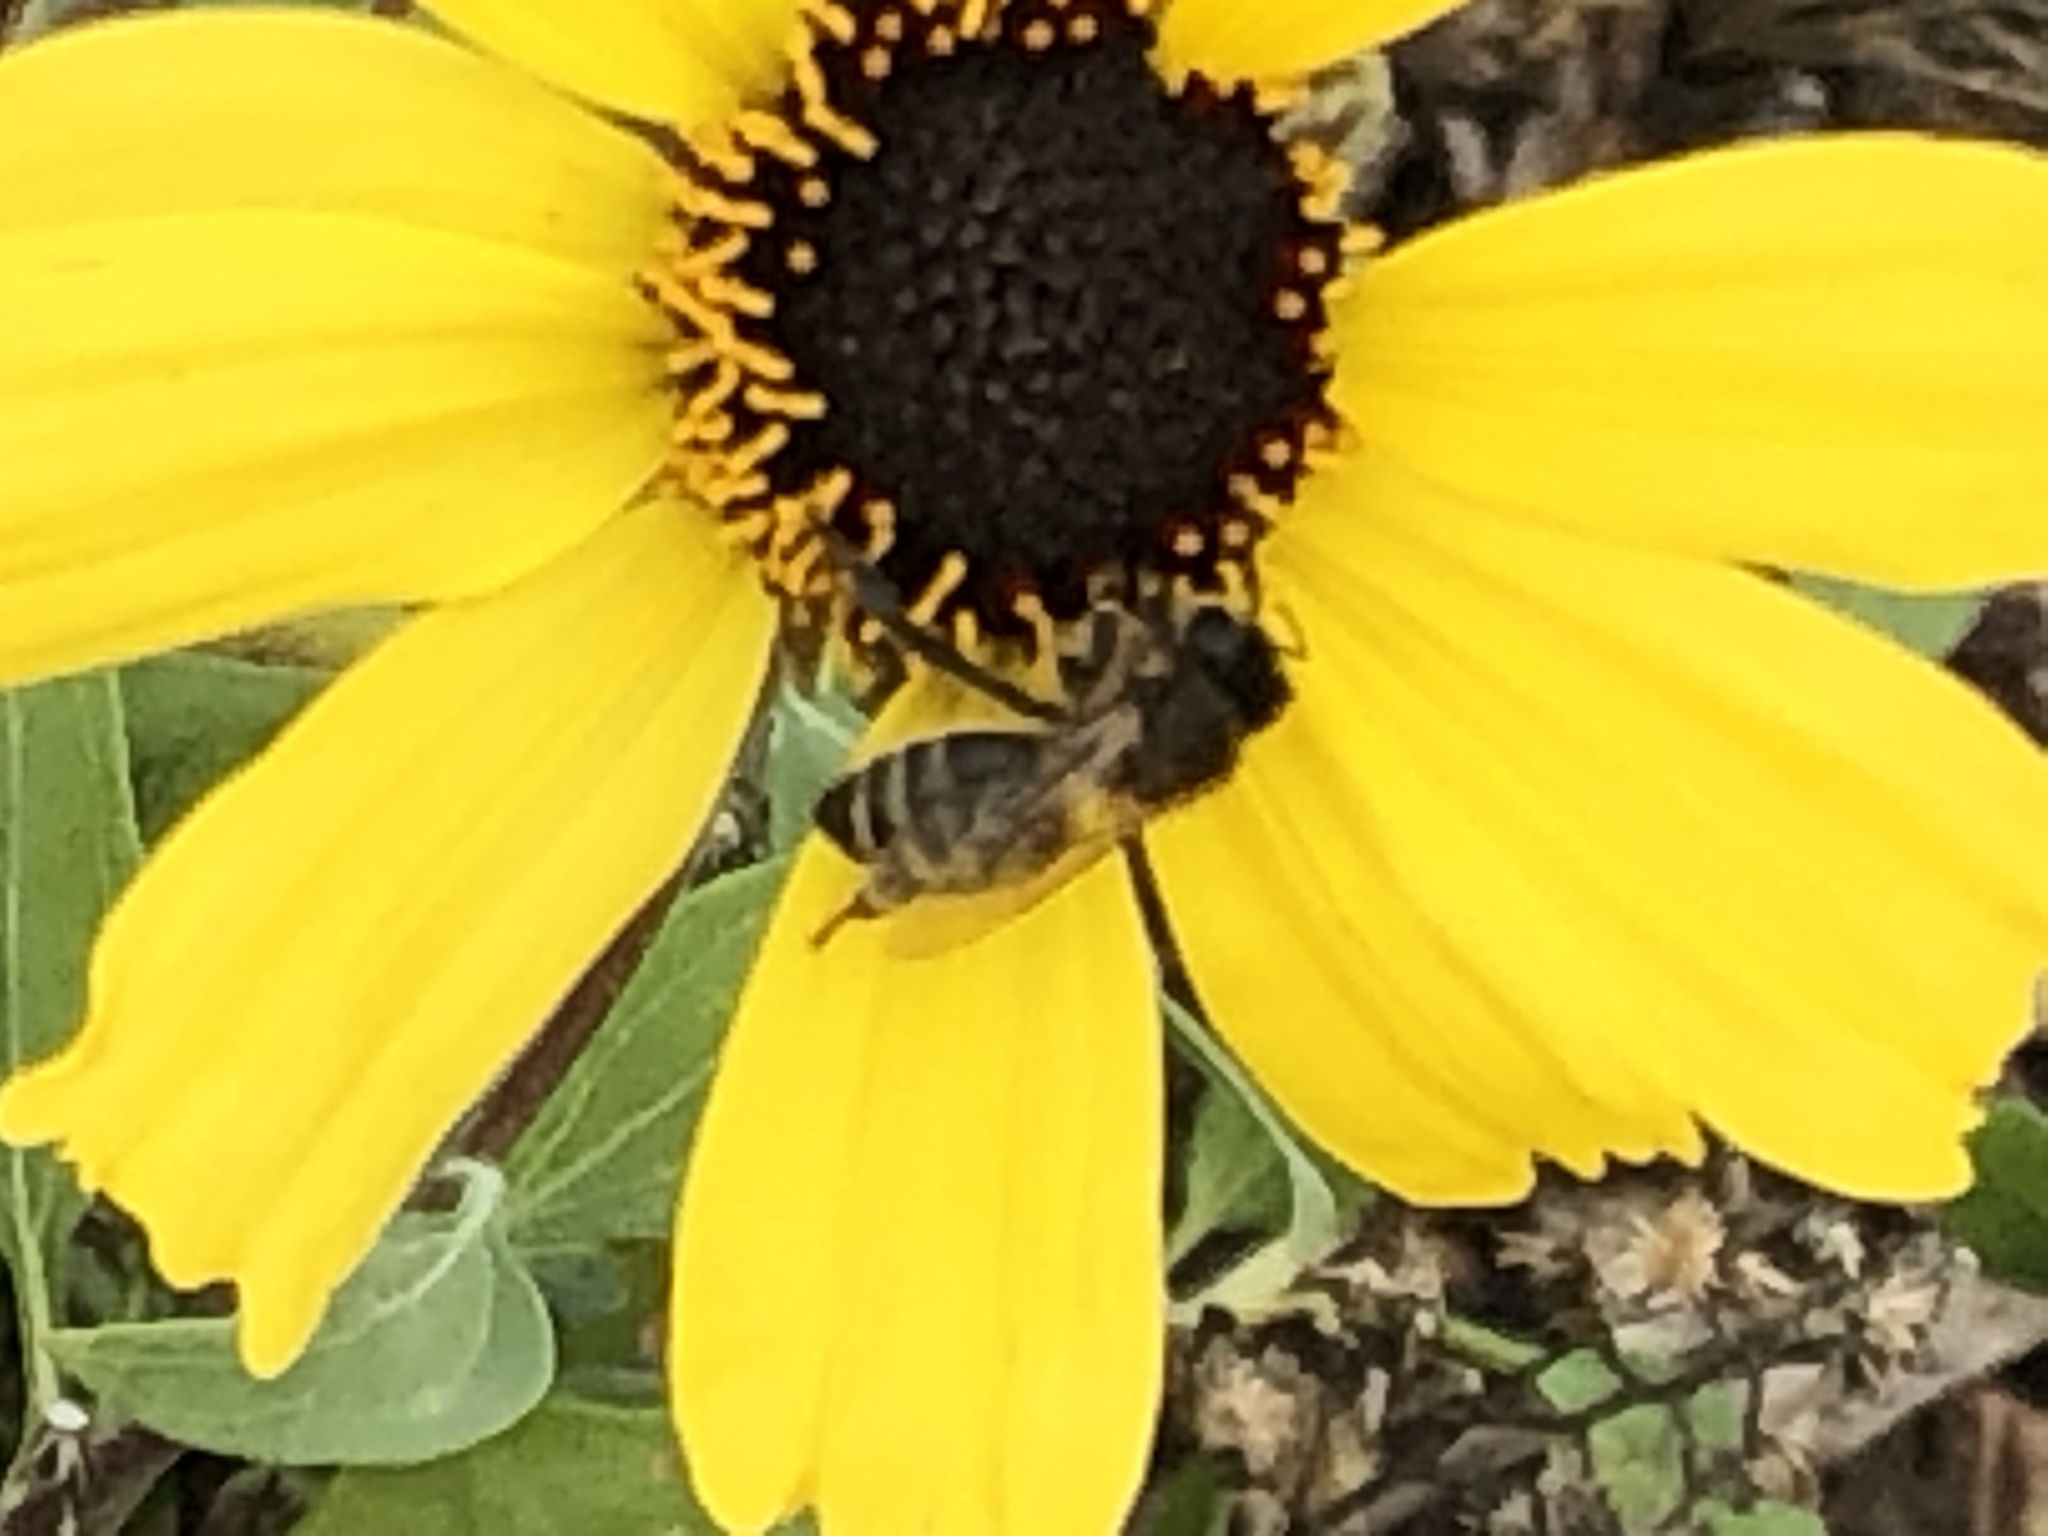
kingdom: Animalia
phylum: Arthropoda
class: Insecta
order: Hymenoptera
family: Apidae
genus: Apis
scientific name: Apis mellifera
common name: Honey bee
